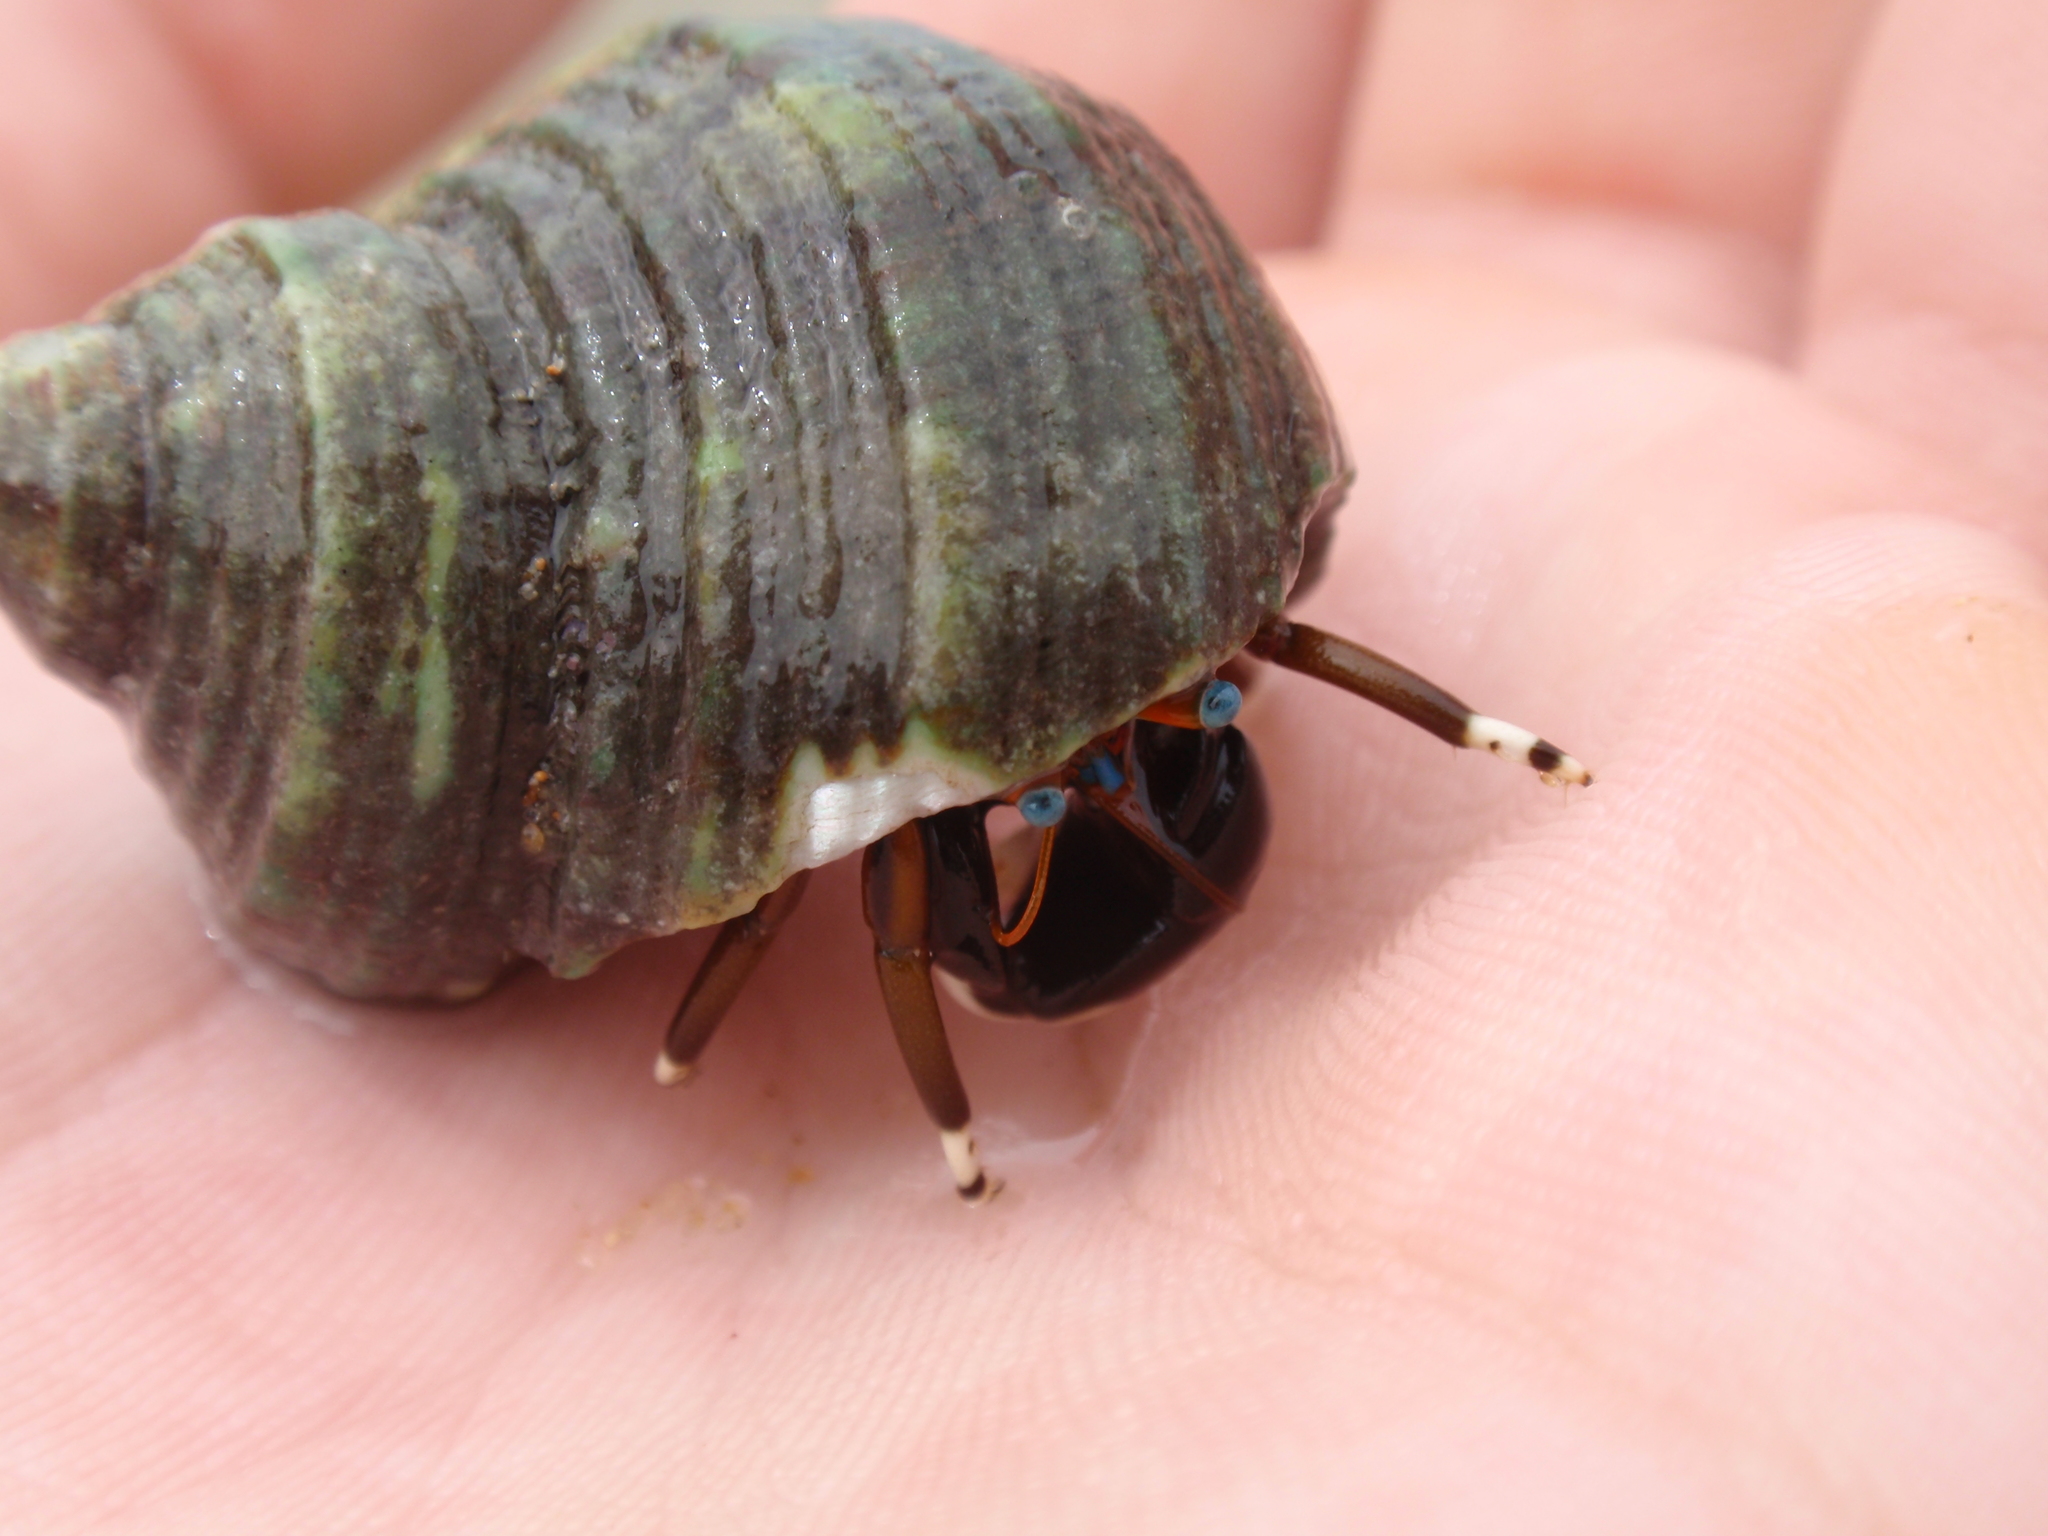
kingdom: Animalia
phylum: Arthropoda
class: Malacostraca
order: Decapoda
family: Diogenidae
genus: Calcinus
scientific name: Calcinus laevimanus
